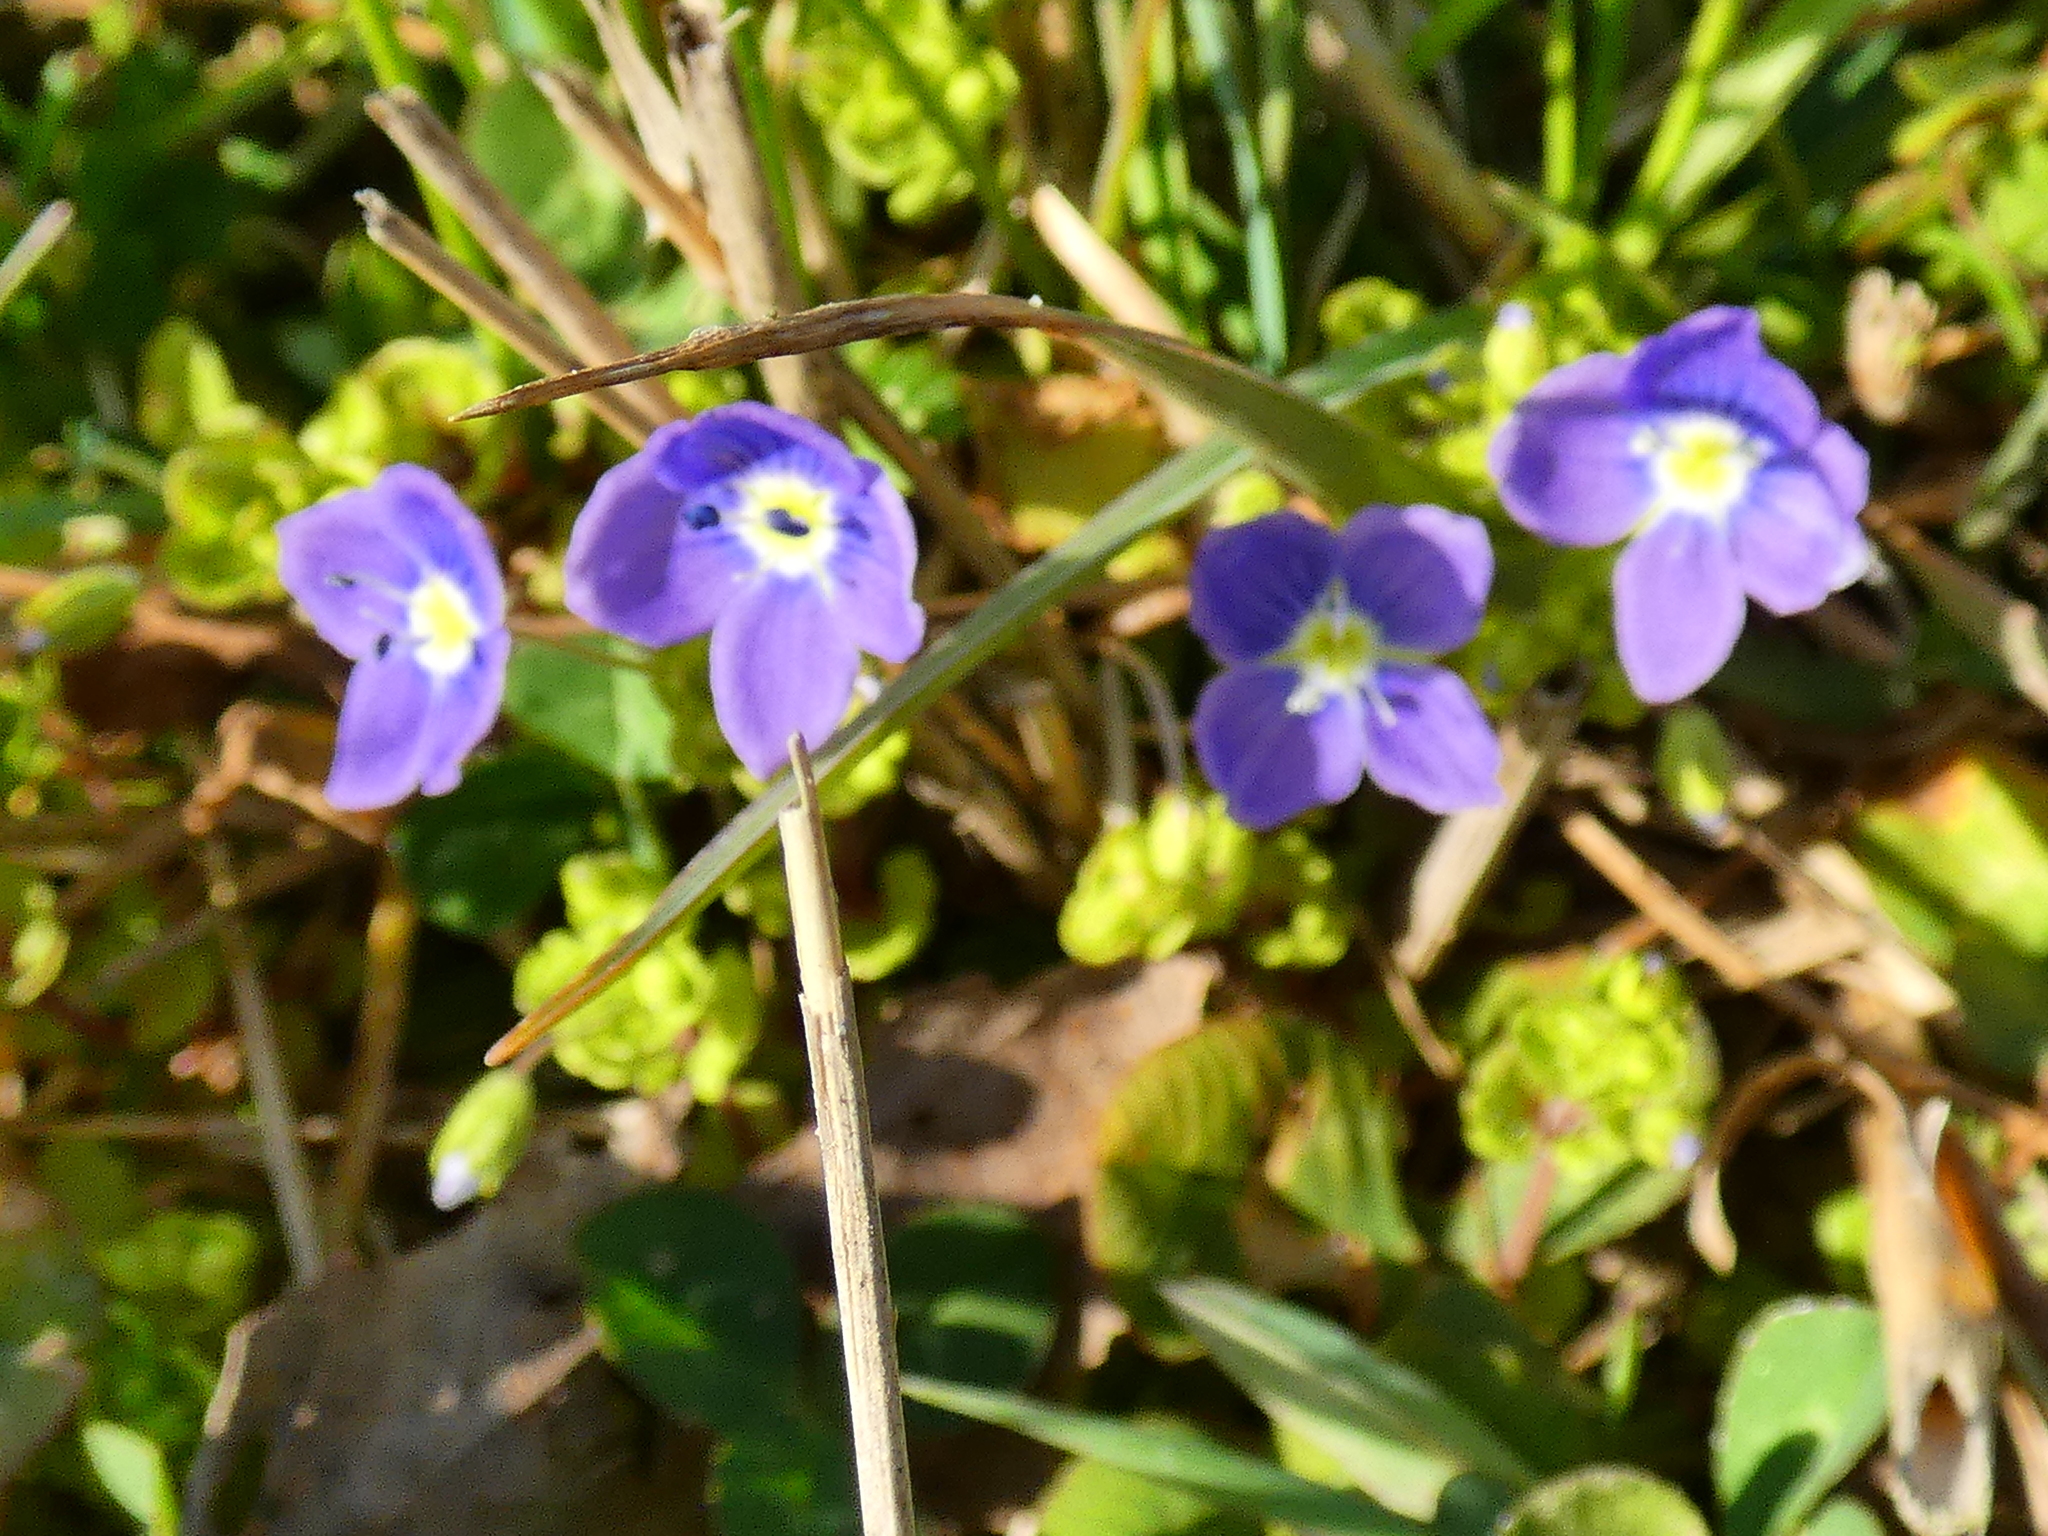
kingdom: Plantae
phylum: Tracheophyta
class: Magnoliopsida
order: Lamiales
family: Plantaginaceae
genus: Veronica
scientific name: Veronica filiformis
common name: Slender speedwell
